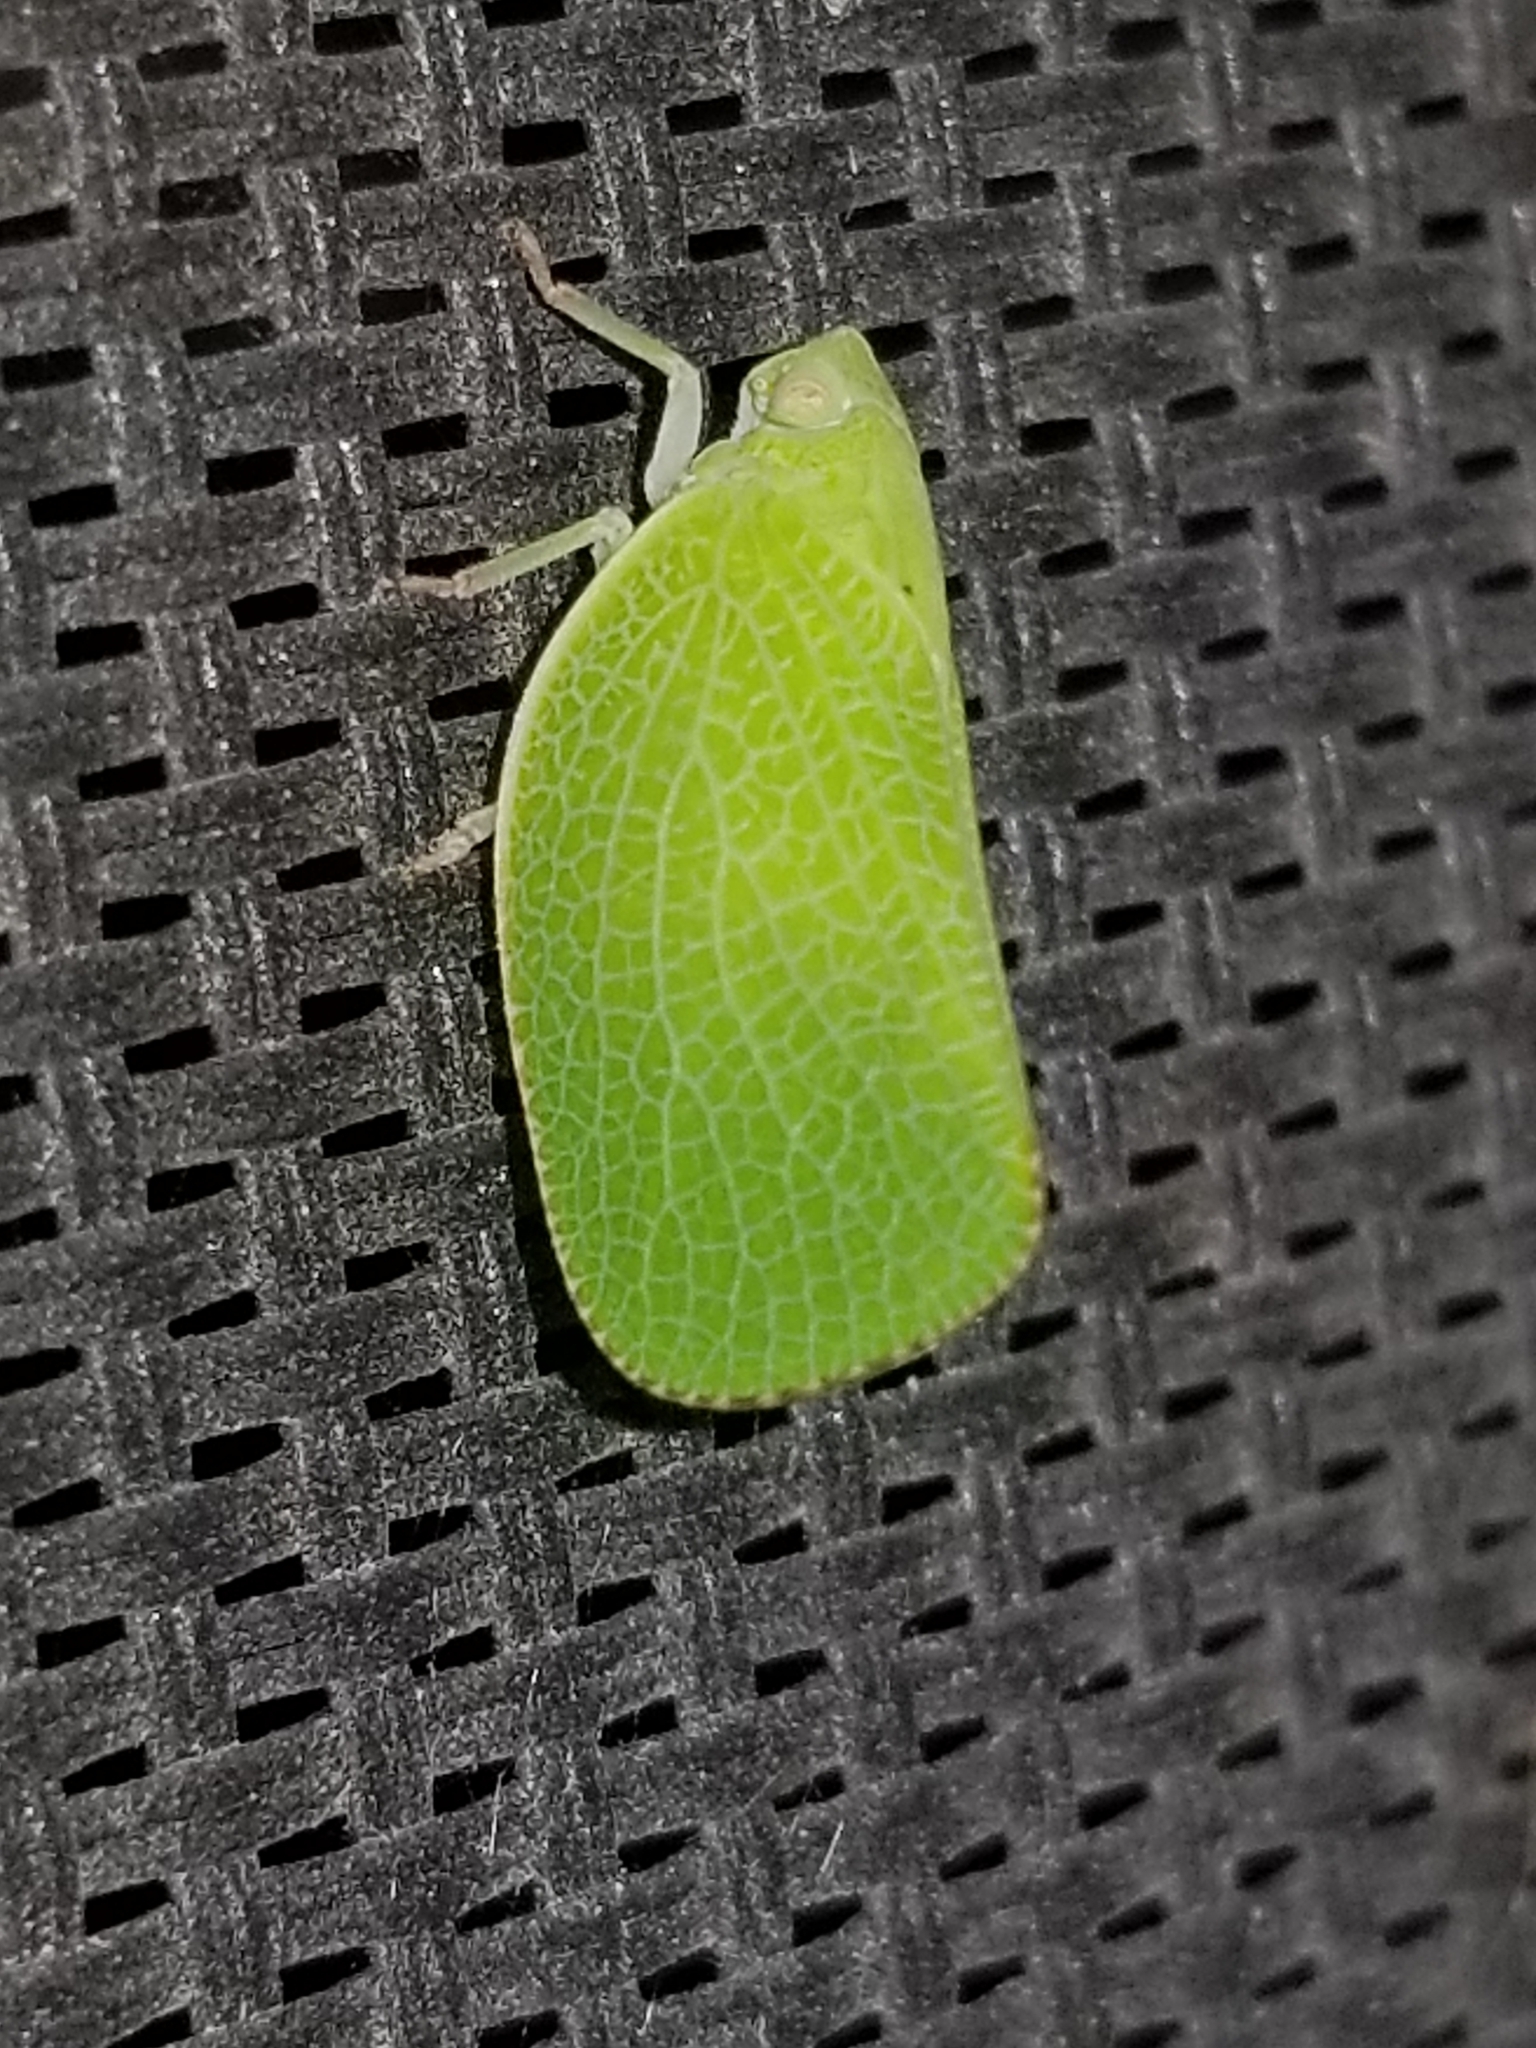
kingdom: Animalia
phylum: Arthropoda
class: Insecta
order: Hemiptera
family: Acanaloniidae
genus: Acanalonia
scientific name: Acanalonia conica
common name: Green cone-headed planthopper
